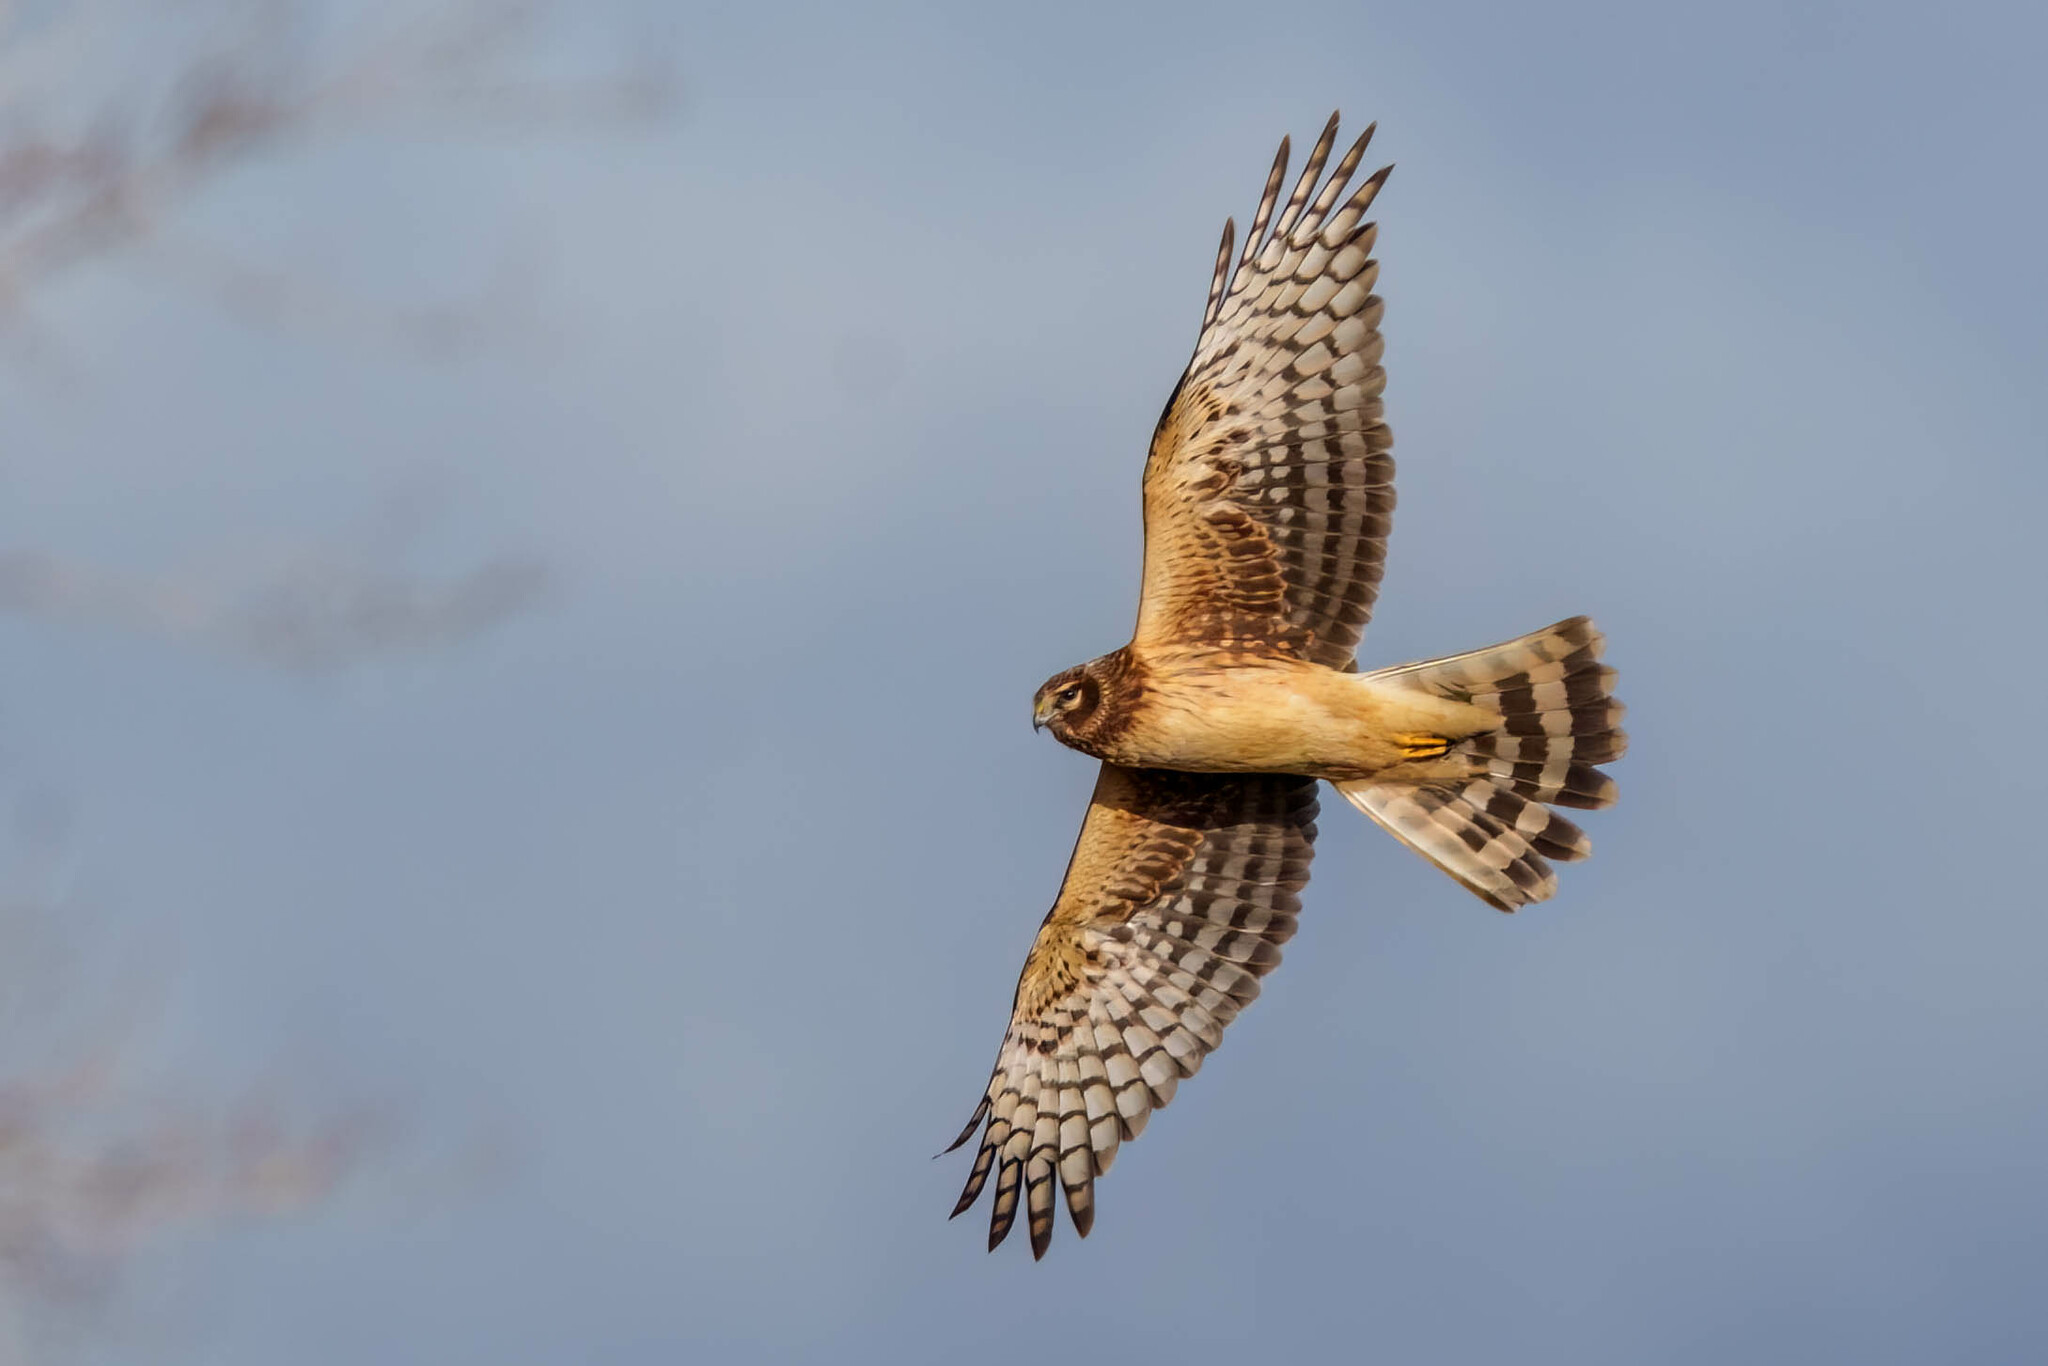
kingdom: Animalia
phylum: Chordata
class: Aves
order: Accipitriformes
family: Accipitridae
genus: Circus
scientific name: Circus cyaneus
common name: Hen harrier
